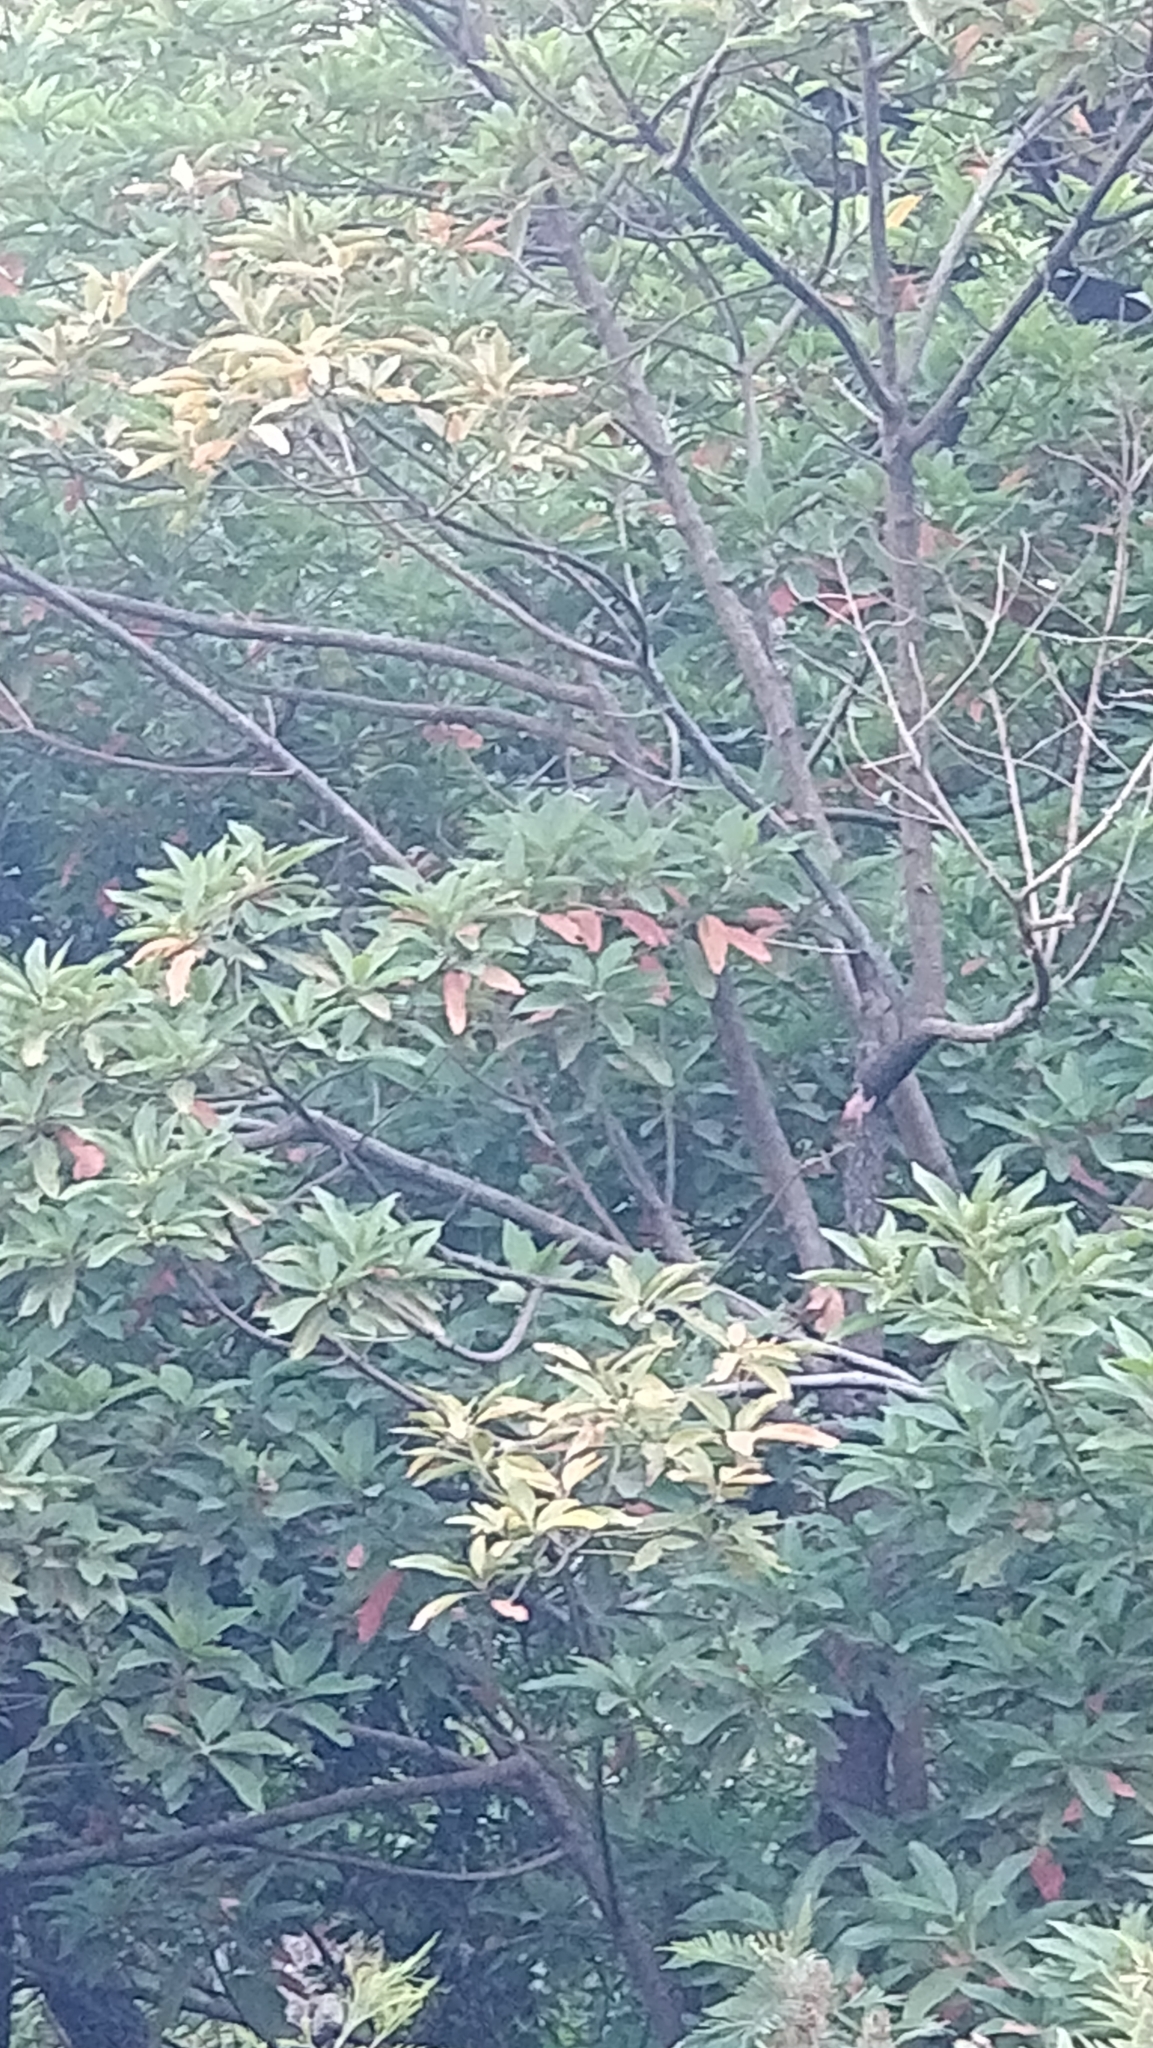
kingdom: Plantae
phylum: Tracheophyta
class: Magnoliopsida
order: Laurales
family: Lauraceae
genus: Persea
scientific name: Persea indica
